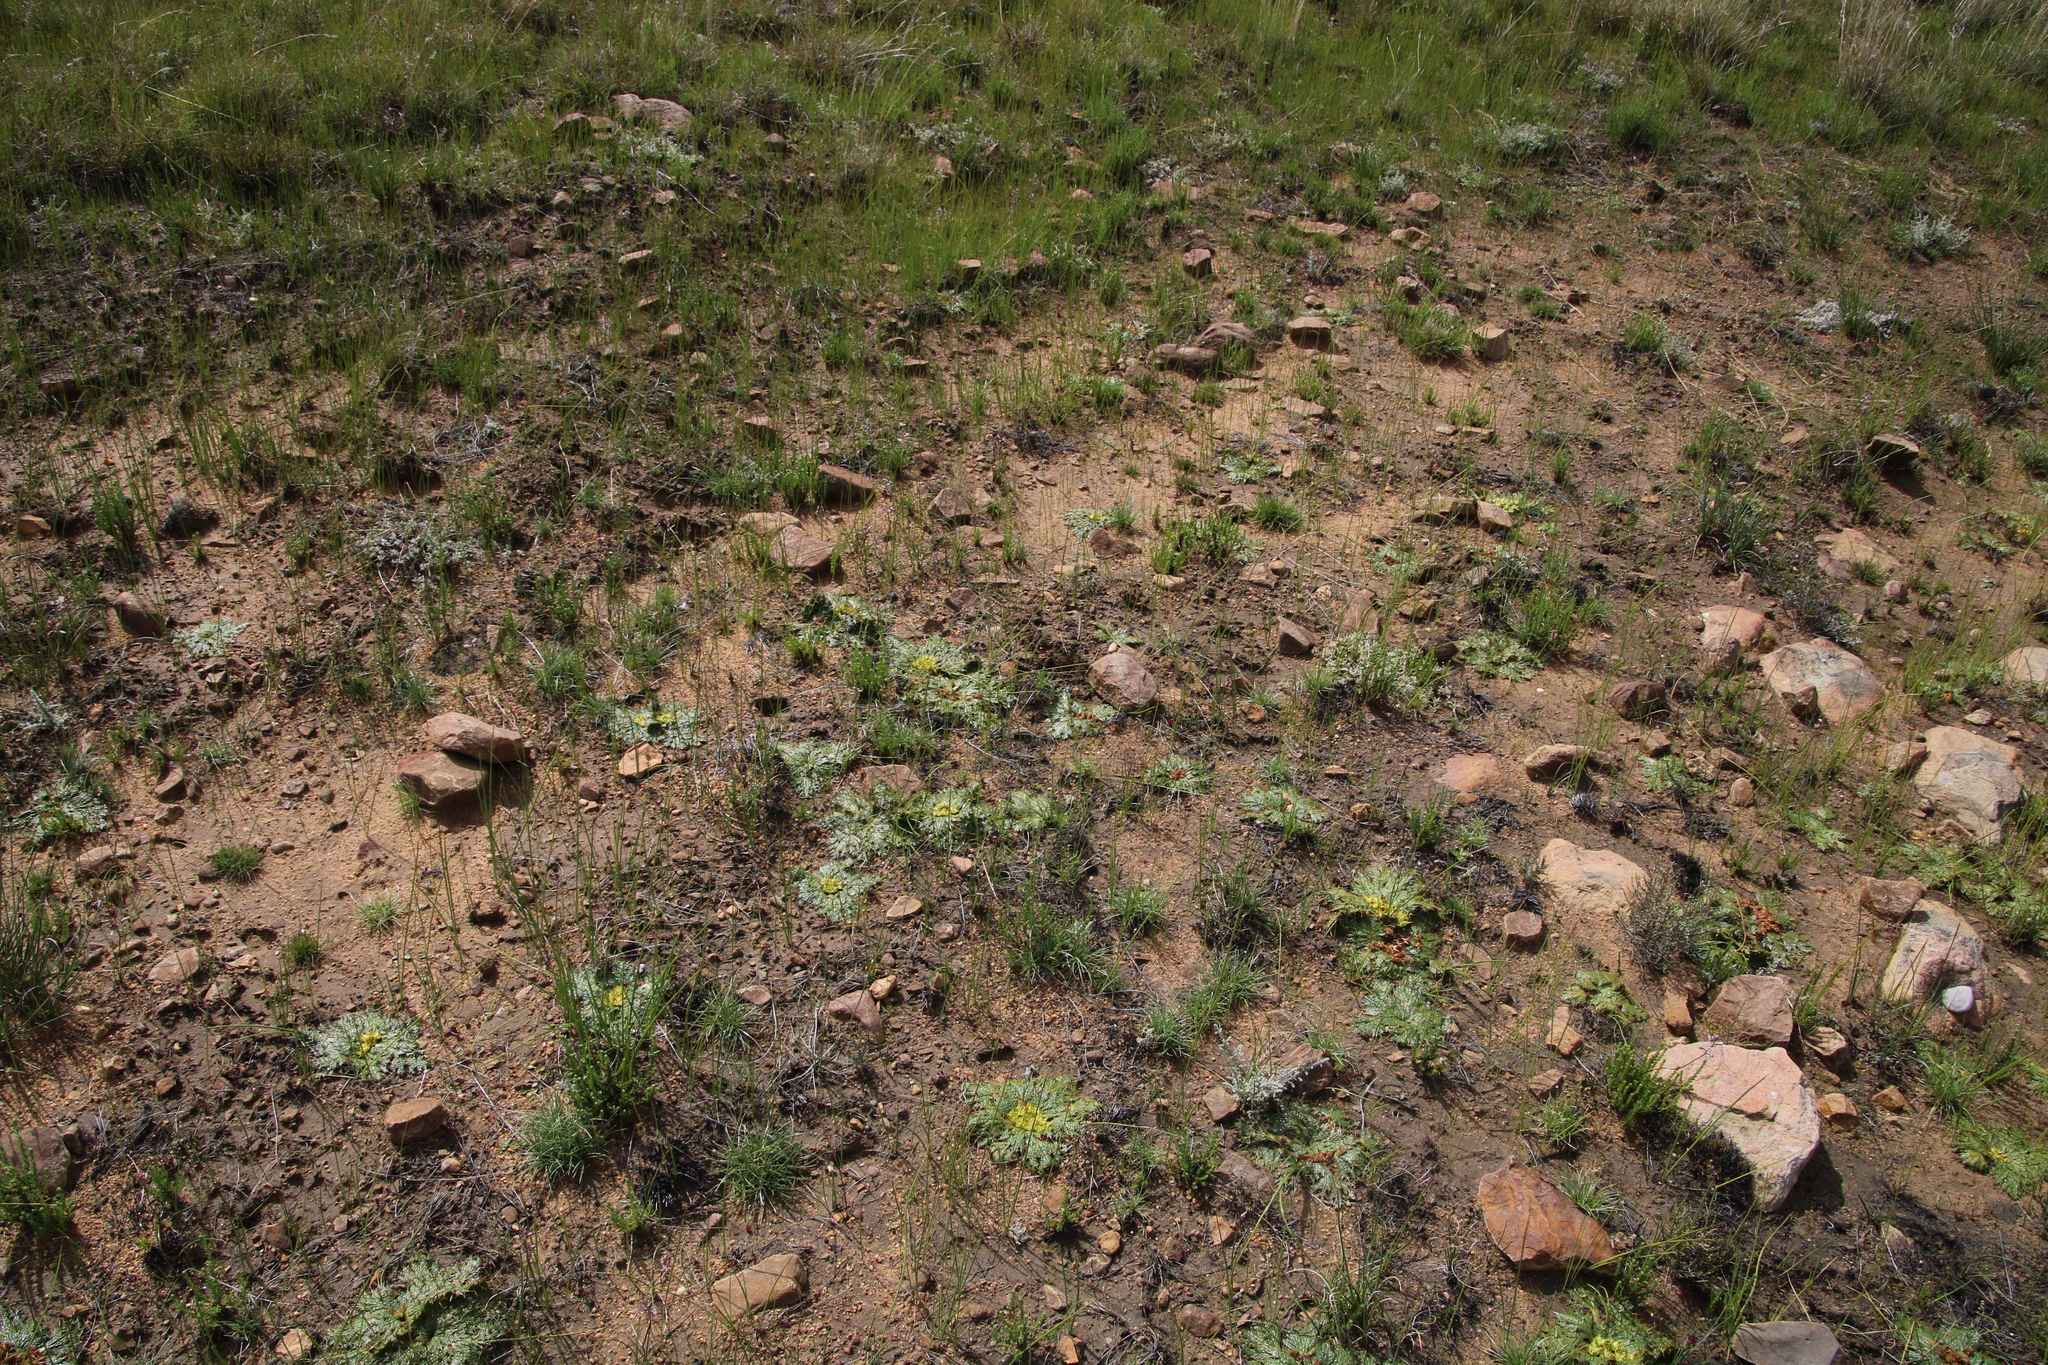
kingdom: Plantae
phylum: Tracheophyta
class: Magnoliopsida
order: Apiales
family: Apiaceae
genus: Arctopus
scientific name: Arctopus echinatus
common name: Platdoring
